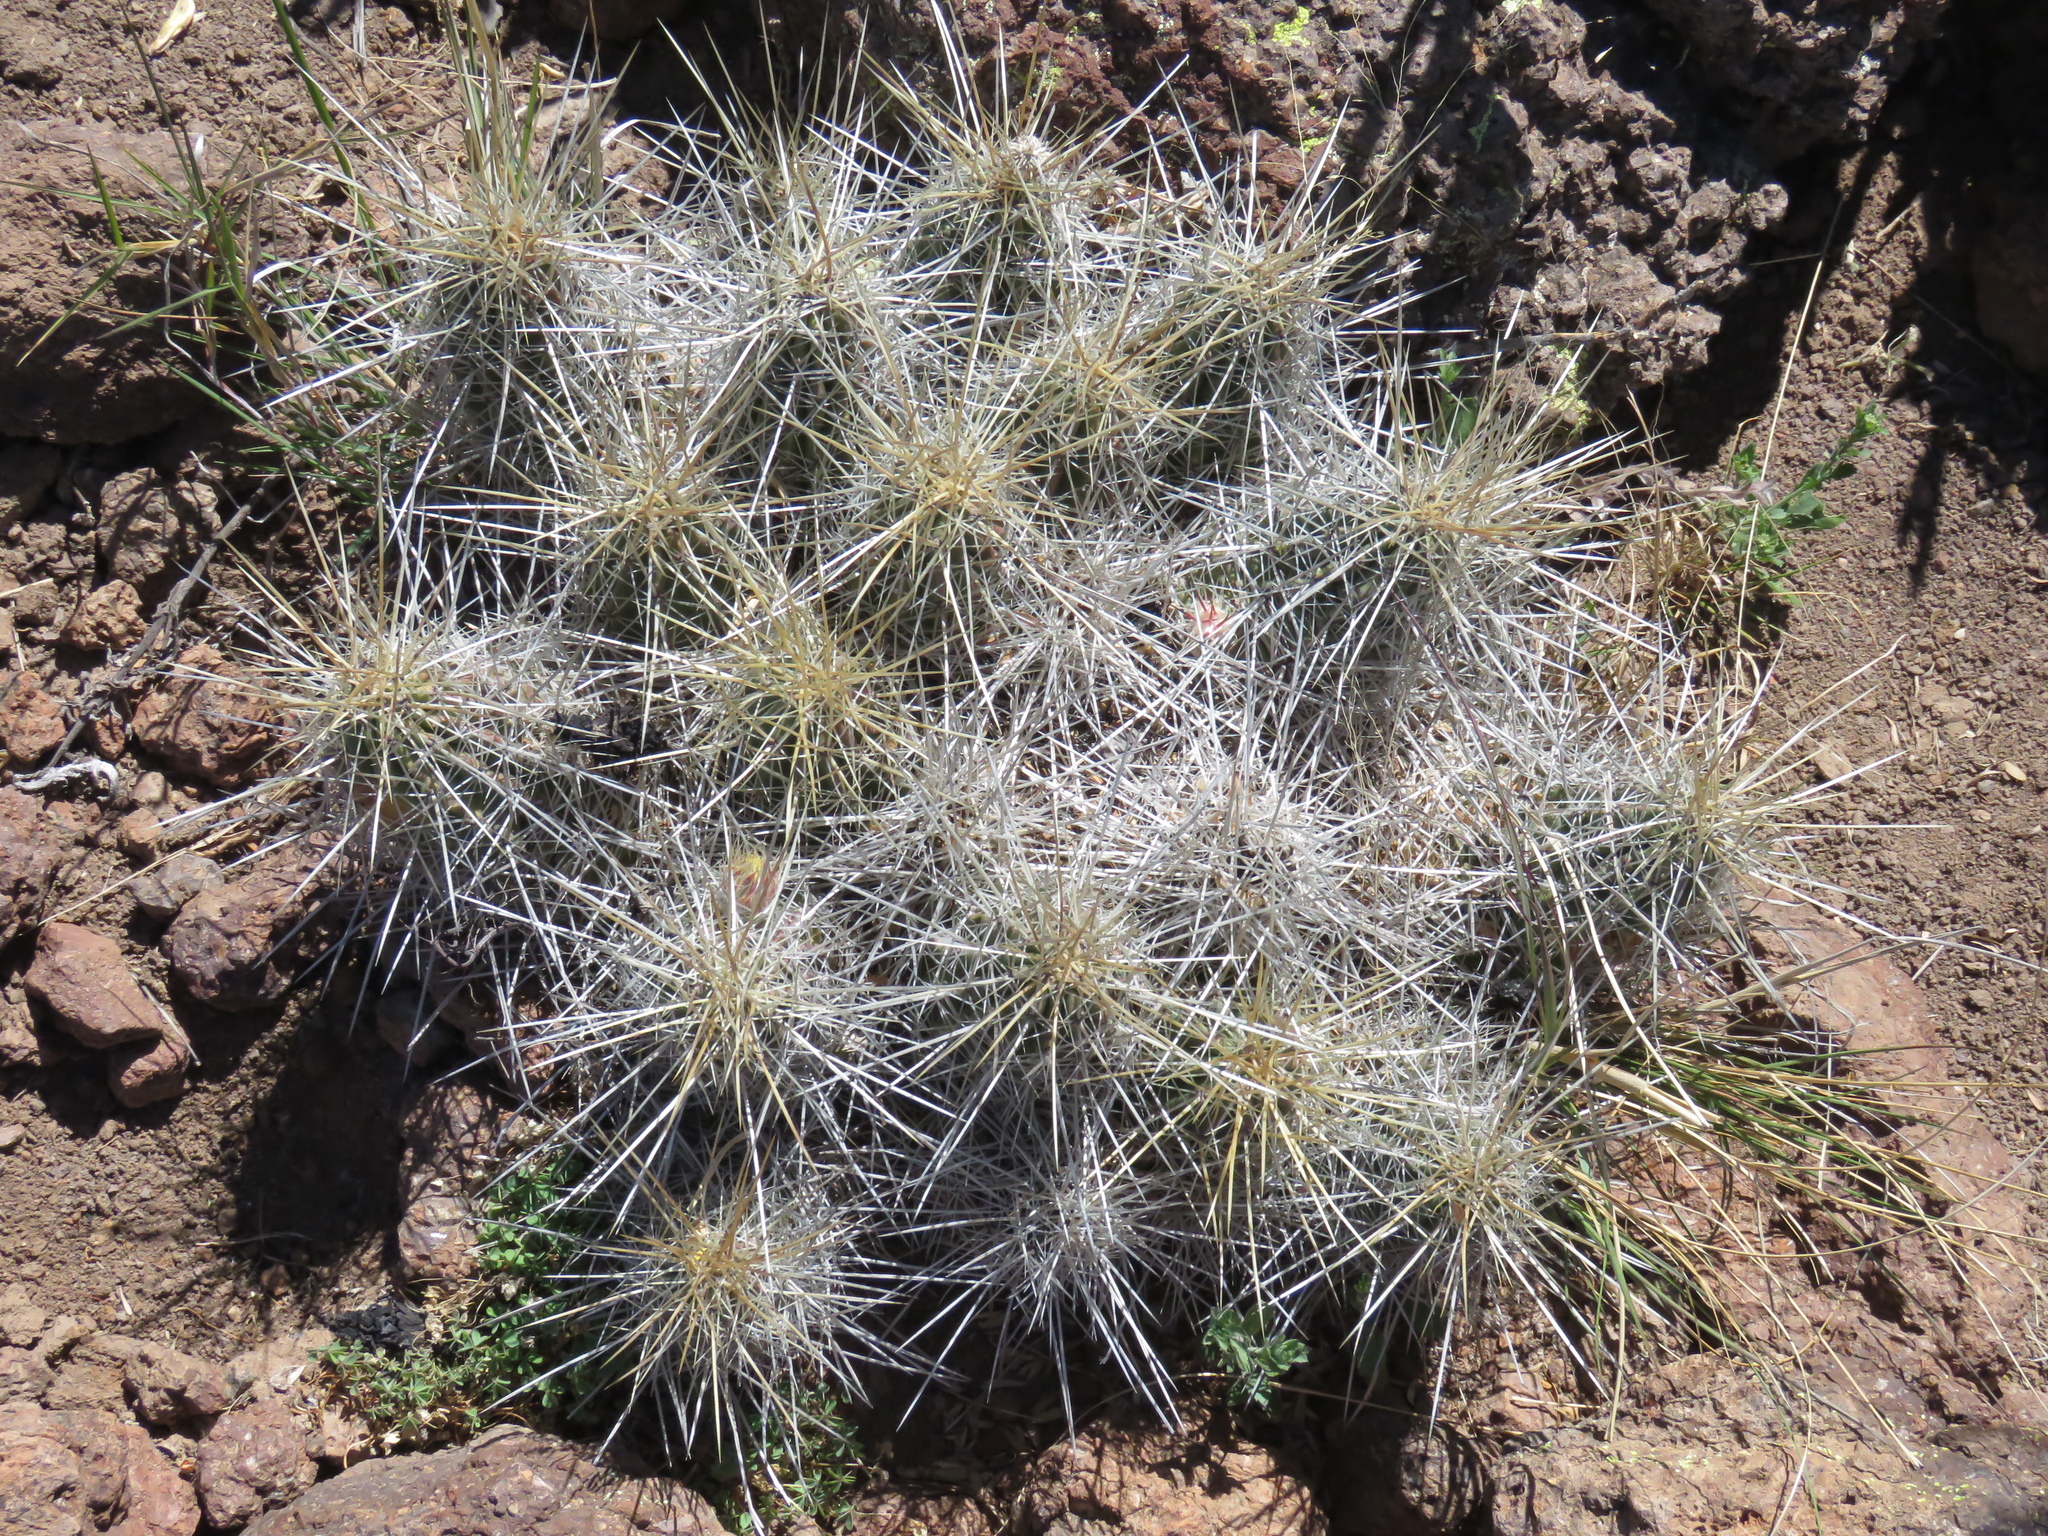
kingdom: Plantae
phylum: Tracheophyta
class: Magnoliopsida
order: Caryophyllales
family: Cactaceae
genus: Echinocereus
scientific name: Echinocereus stramineus
